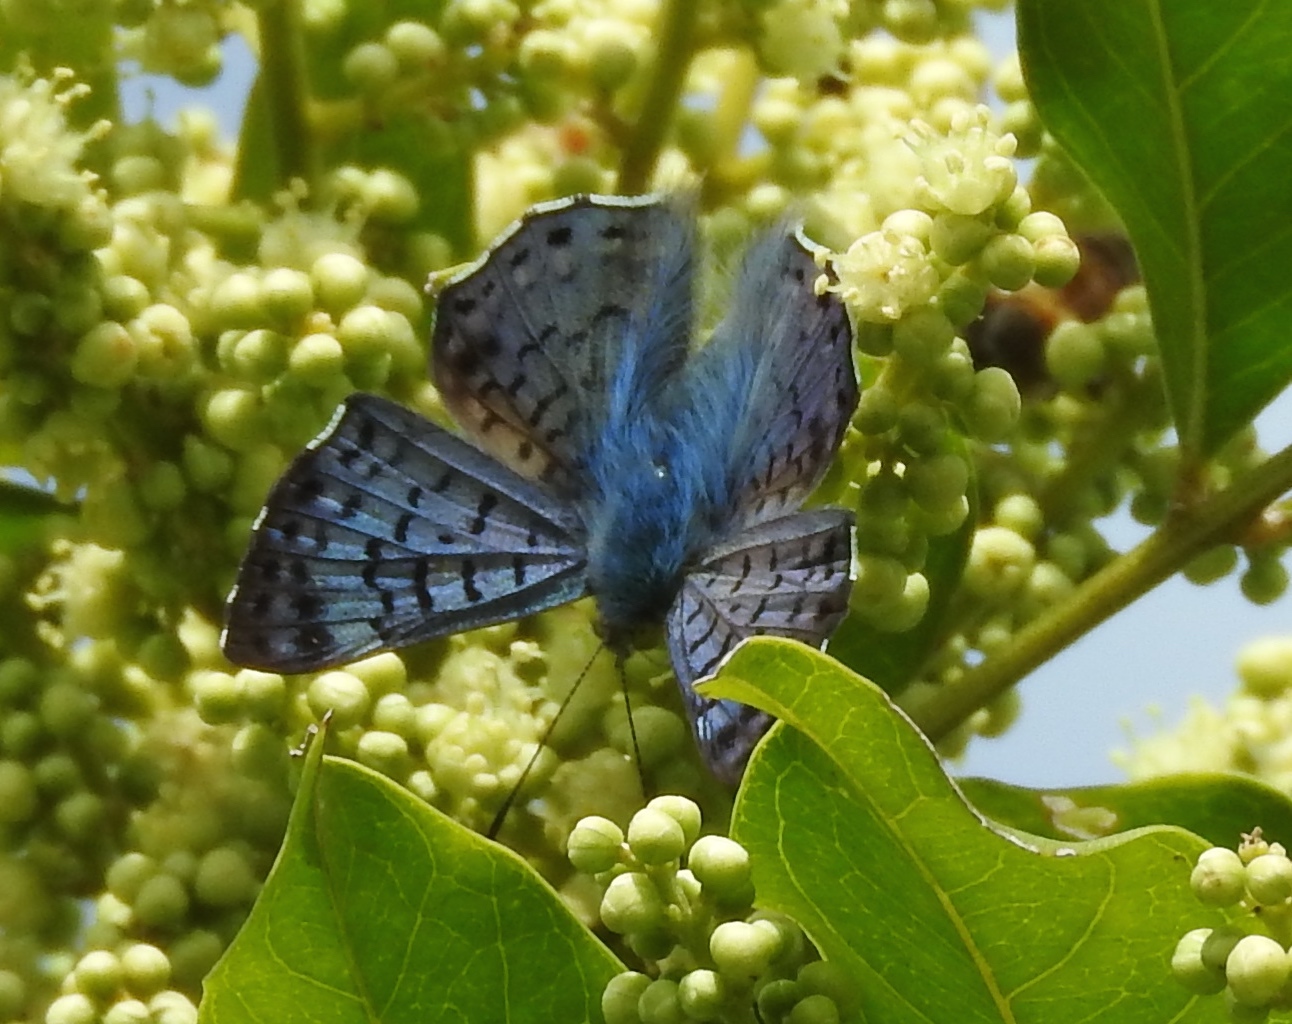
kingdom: Animalia
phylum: Arthropoda
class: Insecta
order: Lepidoptera
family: Riodinidae
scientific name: Riodinidae
